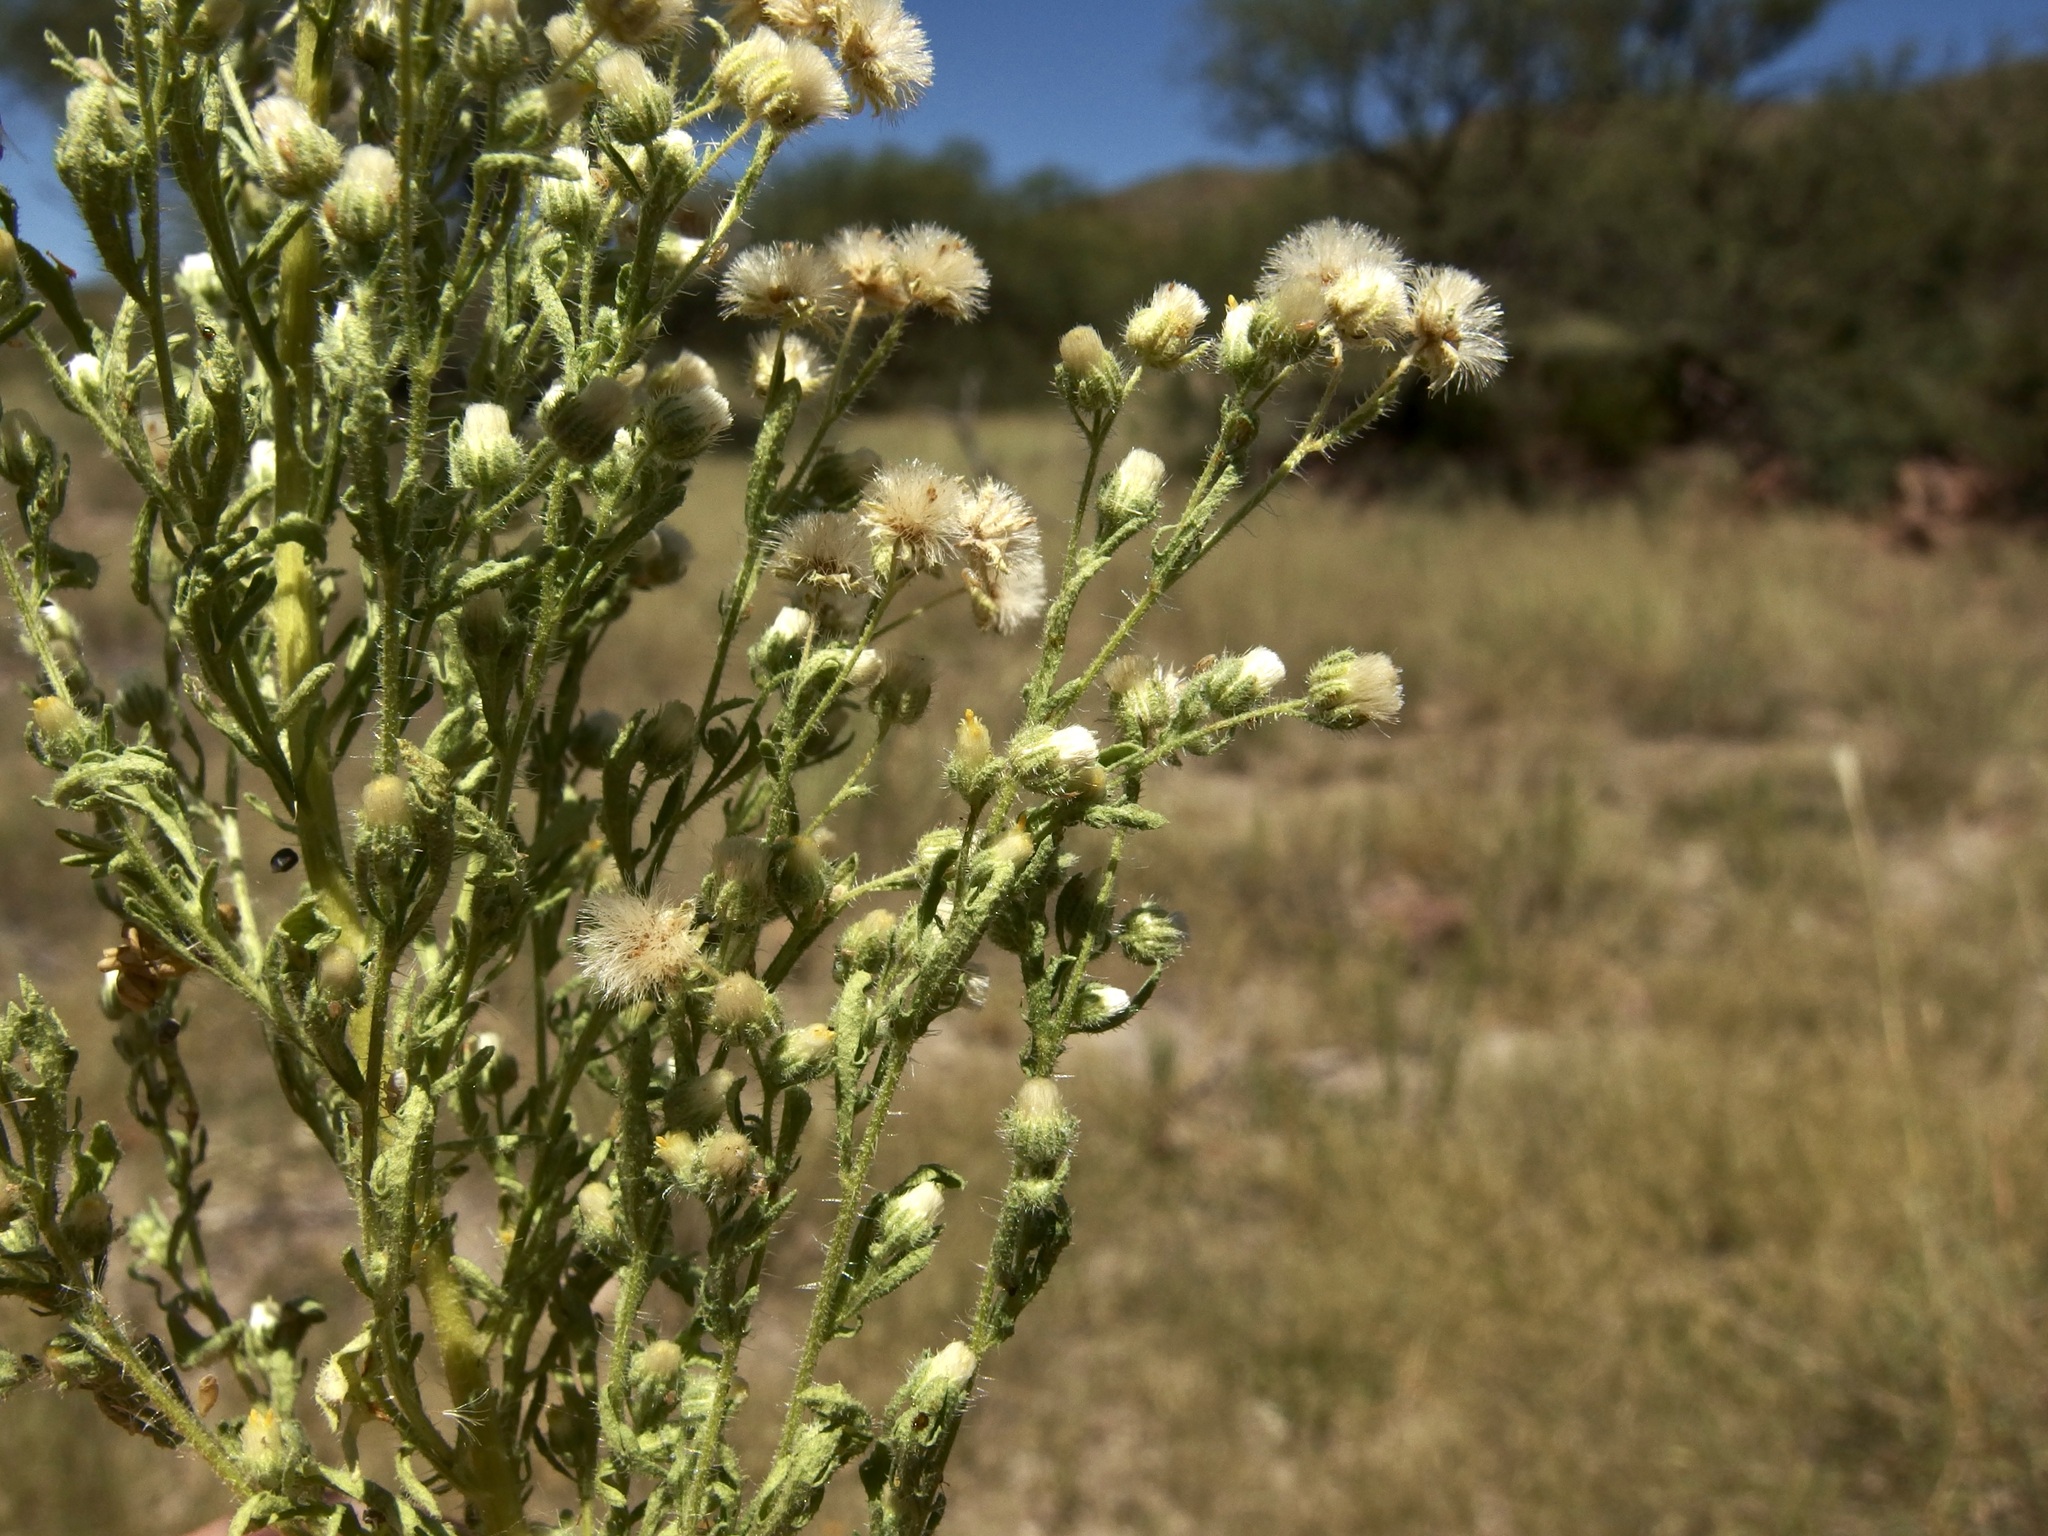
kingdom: Plantae
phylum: Tracheophyta
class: Magnoliopsida
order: Asterales
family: Asteraceae
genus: Laennecia
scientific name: Laennecia sophiifolia
